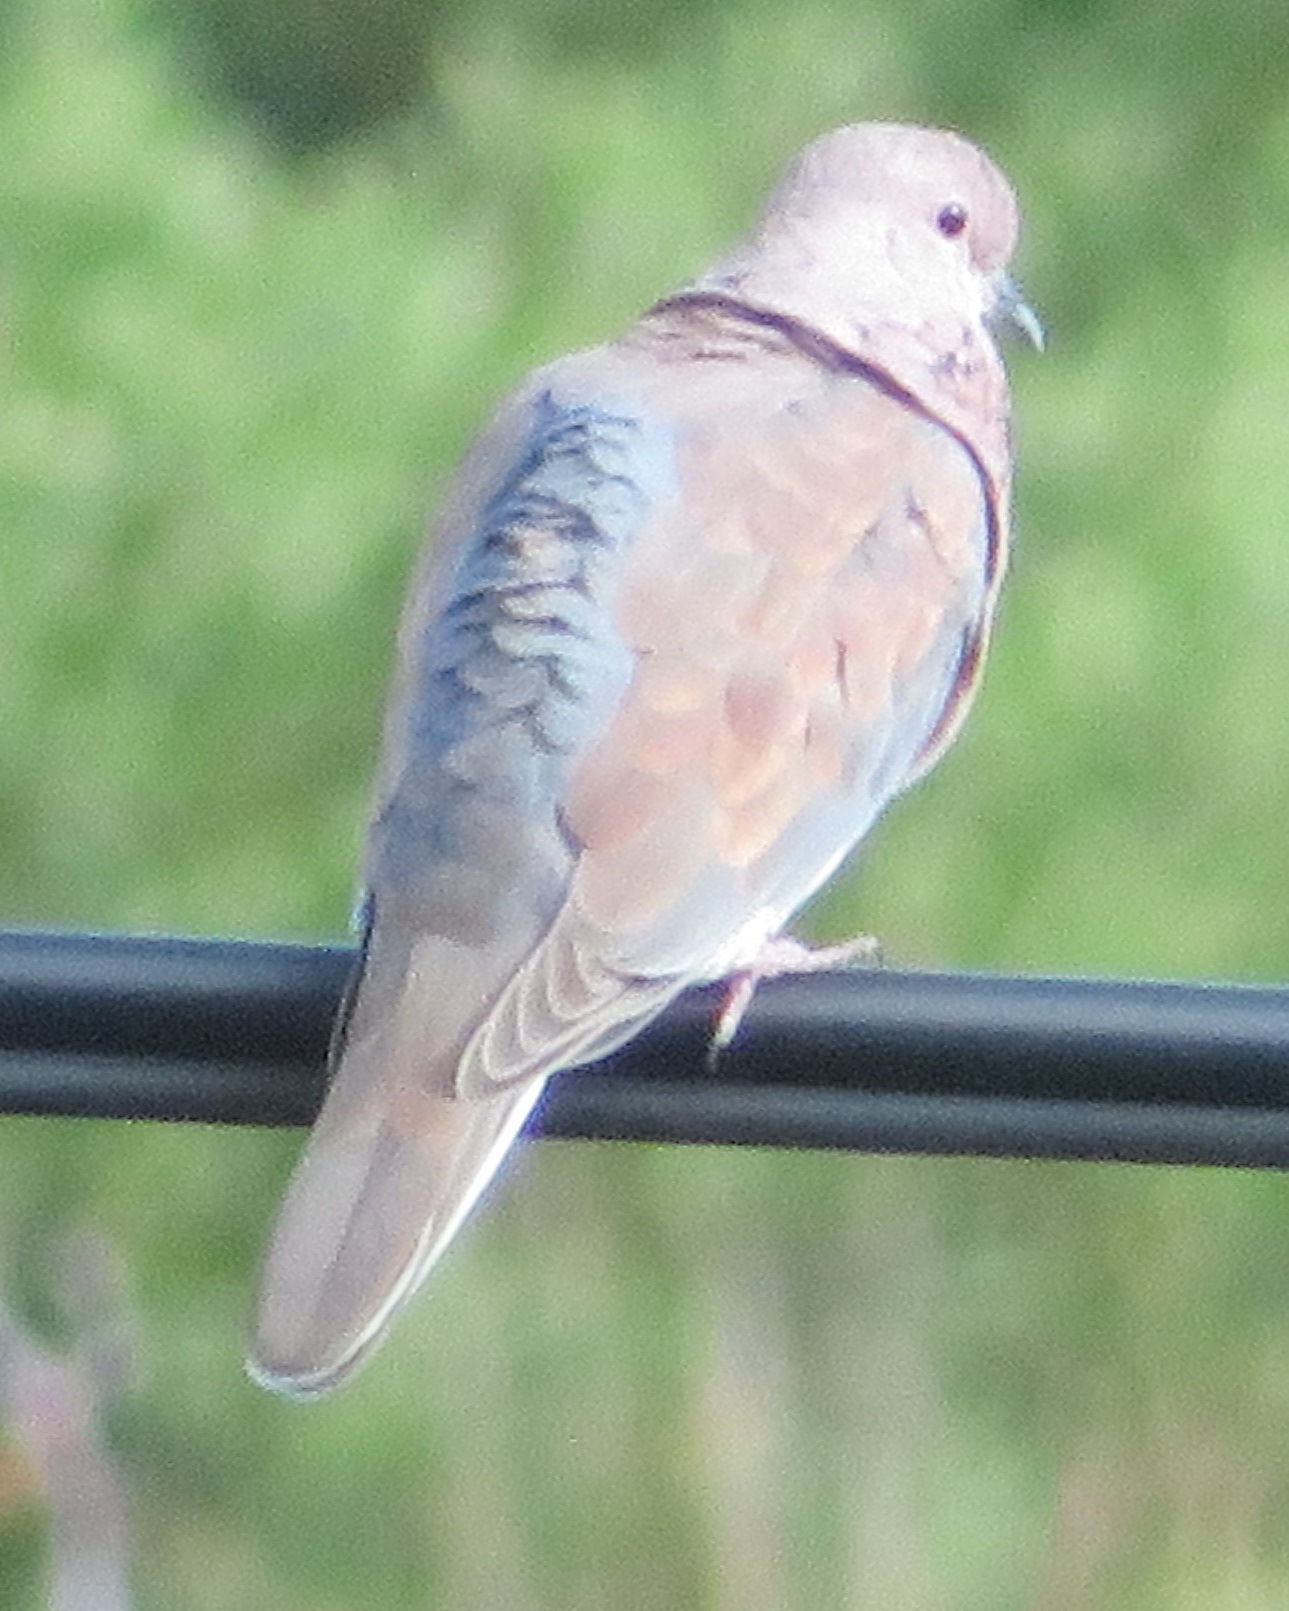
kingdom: Animalia
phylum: Chordata
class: Aves
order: Columbiformes
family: Columbidae
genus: Spilopelia
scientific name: Spilopelia senegalensis
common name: Laughing dove
